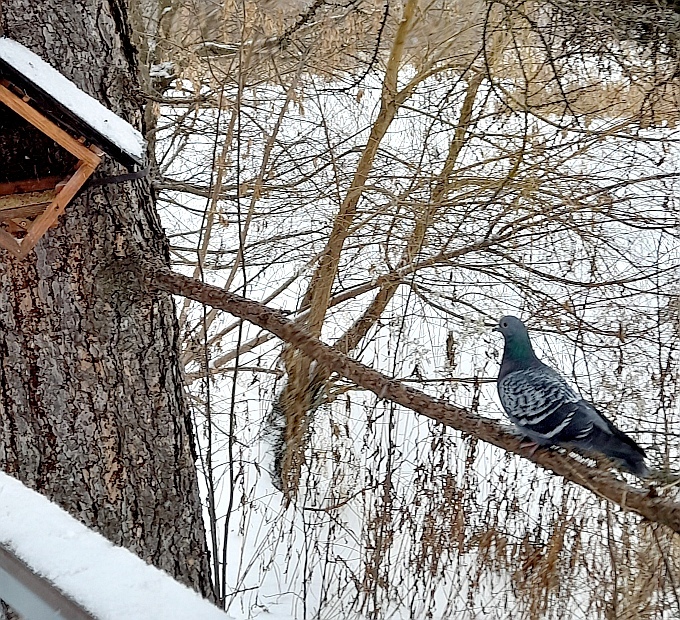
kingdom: Animalia
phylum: Chordata
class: Aves
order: Columbiformes
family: Columbidae
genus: Columba
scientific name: Columba livia
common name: Rock pigeon
